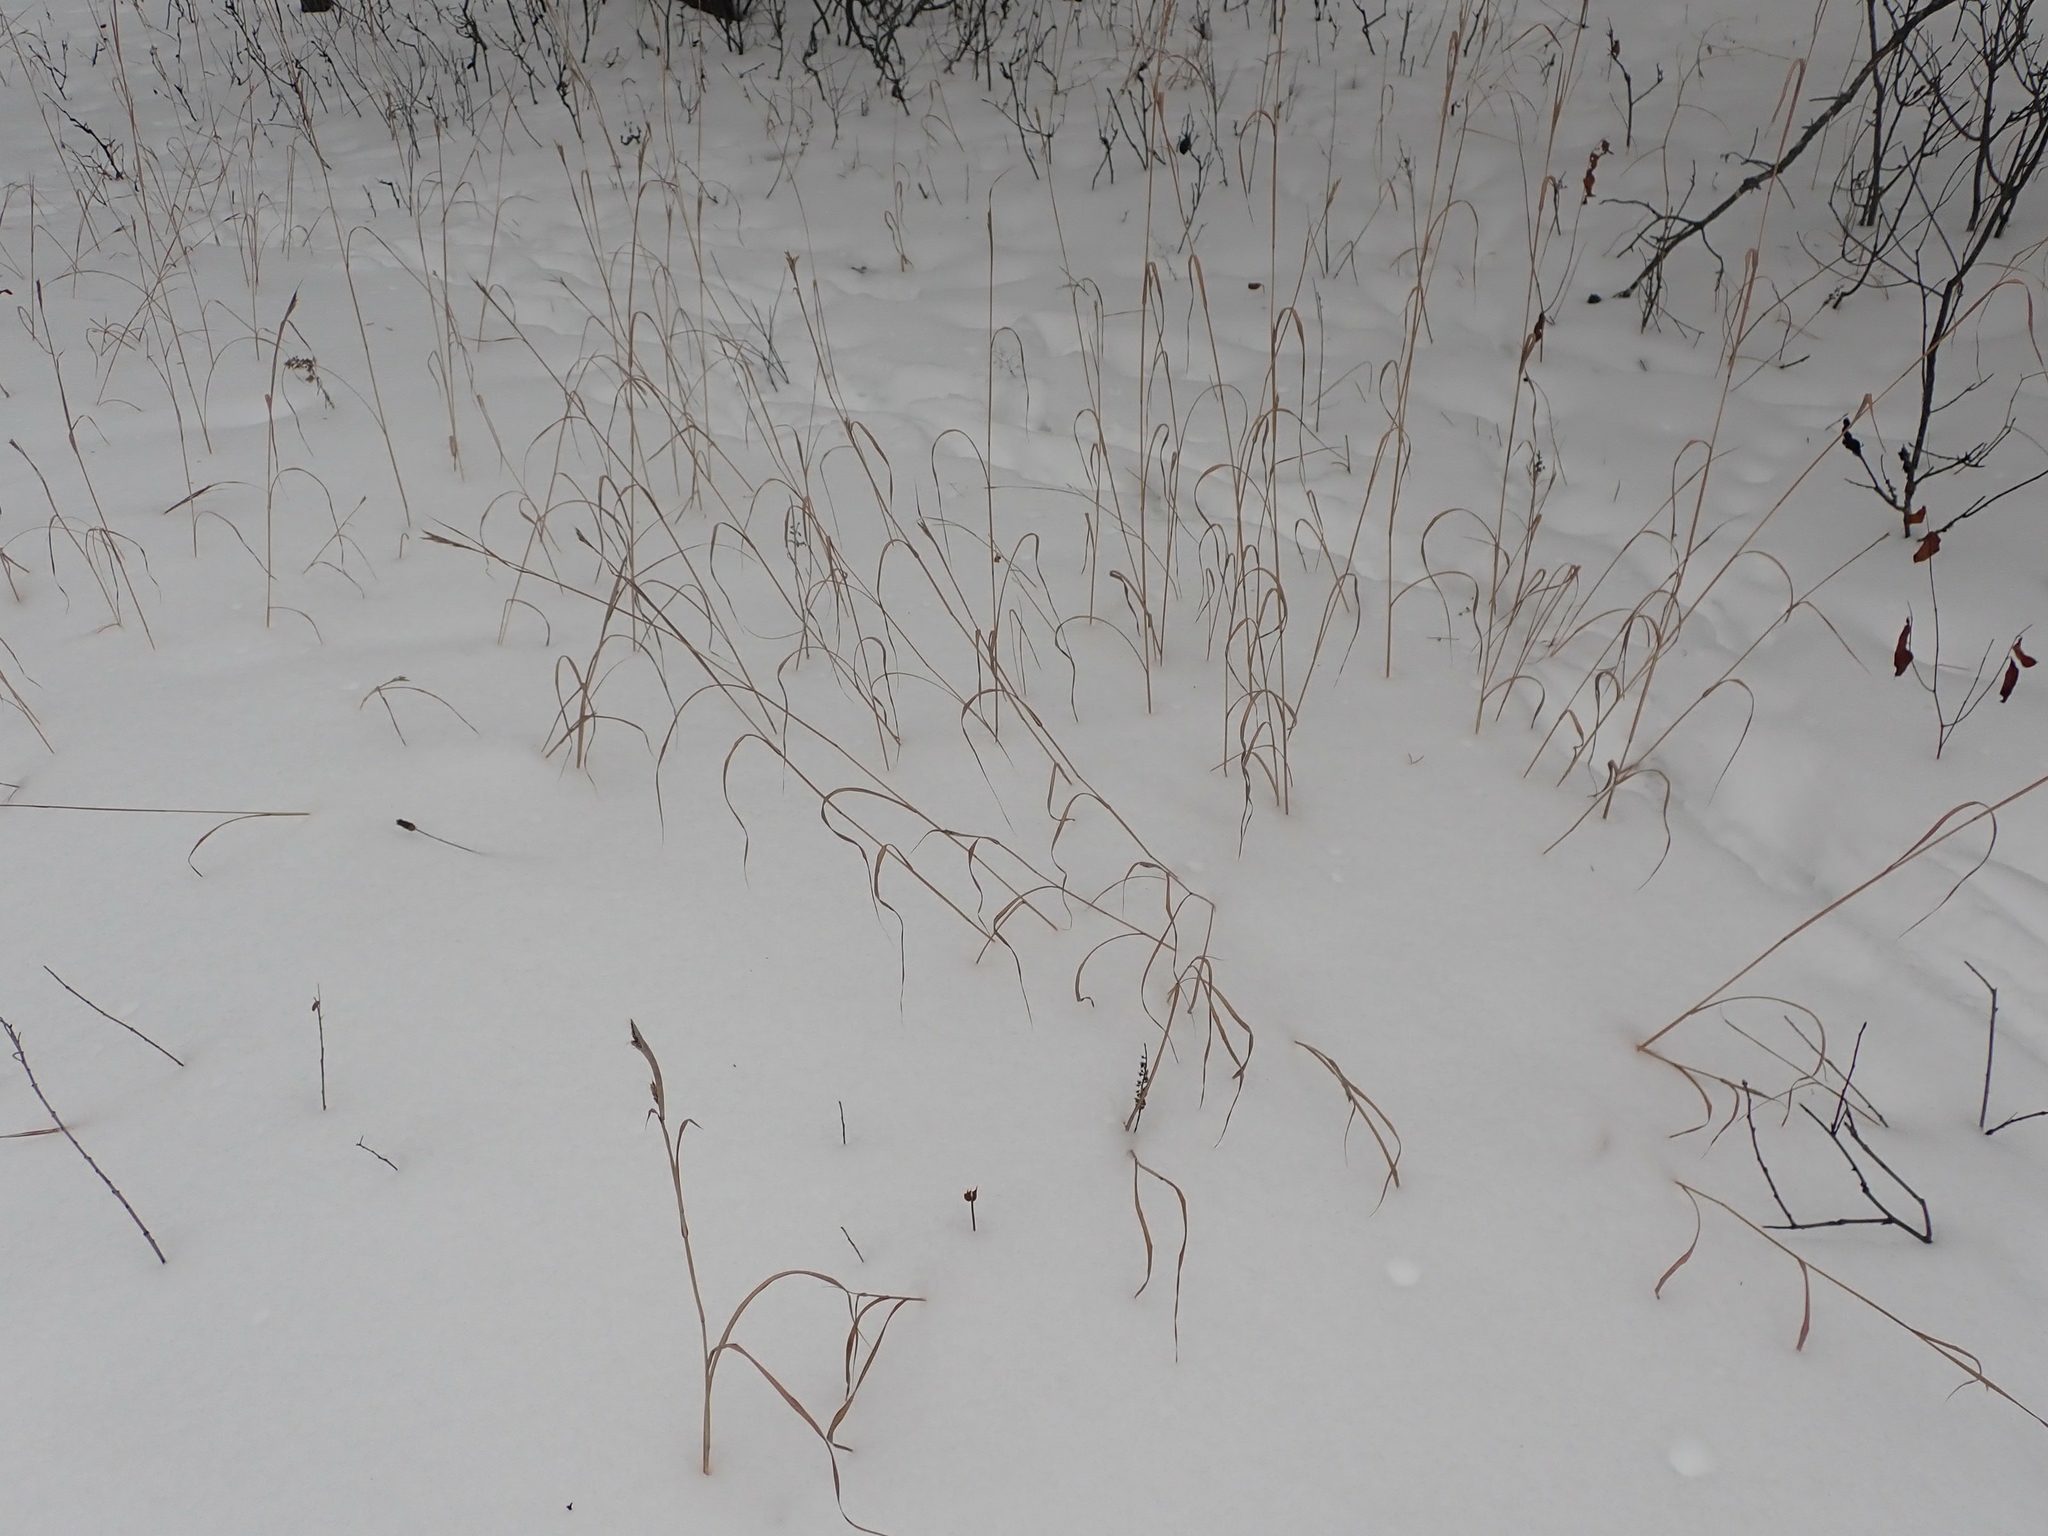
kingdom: Plantae
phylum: Tracheophyta
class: Liliopsida
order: Poales
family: Poaceae
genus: Andropogon
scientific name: Andropogon gerardi
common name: Big bluestem
